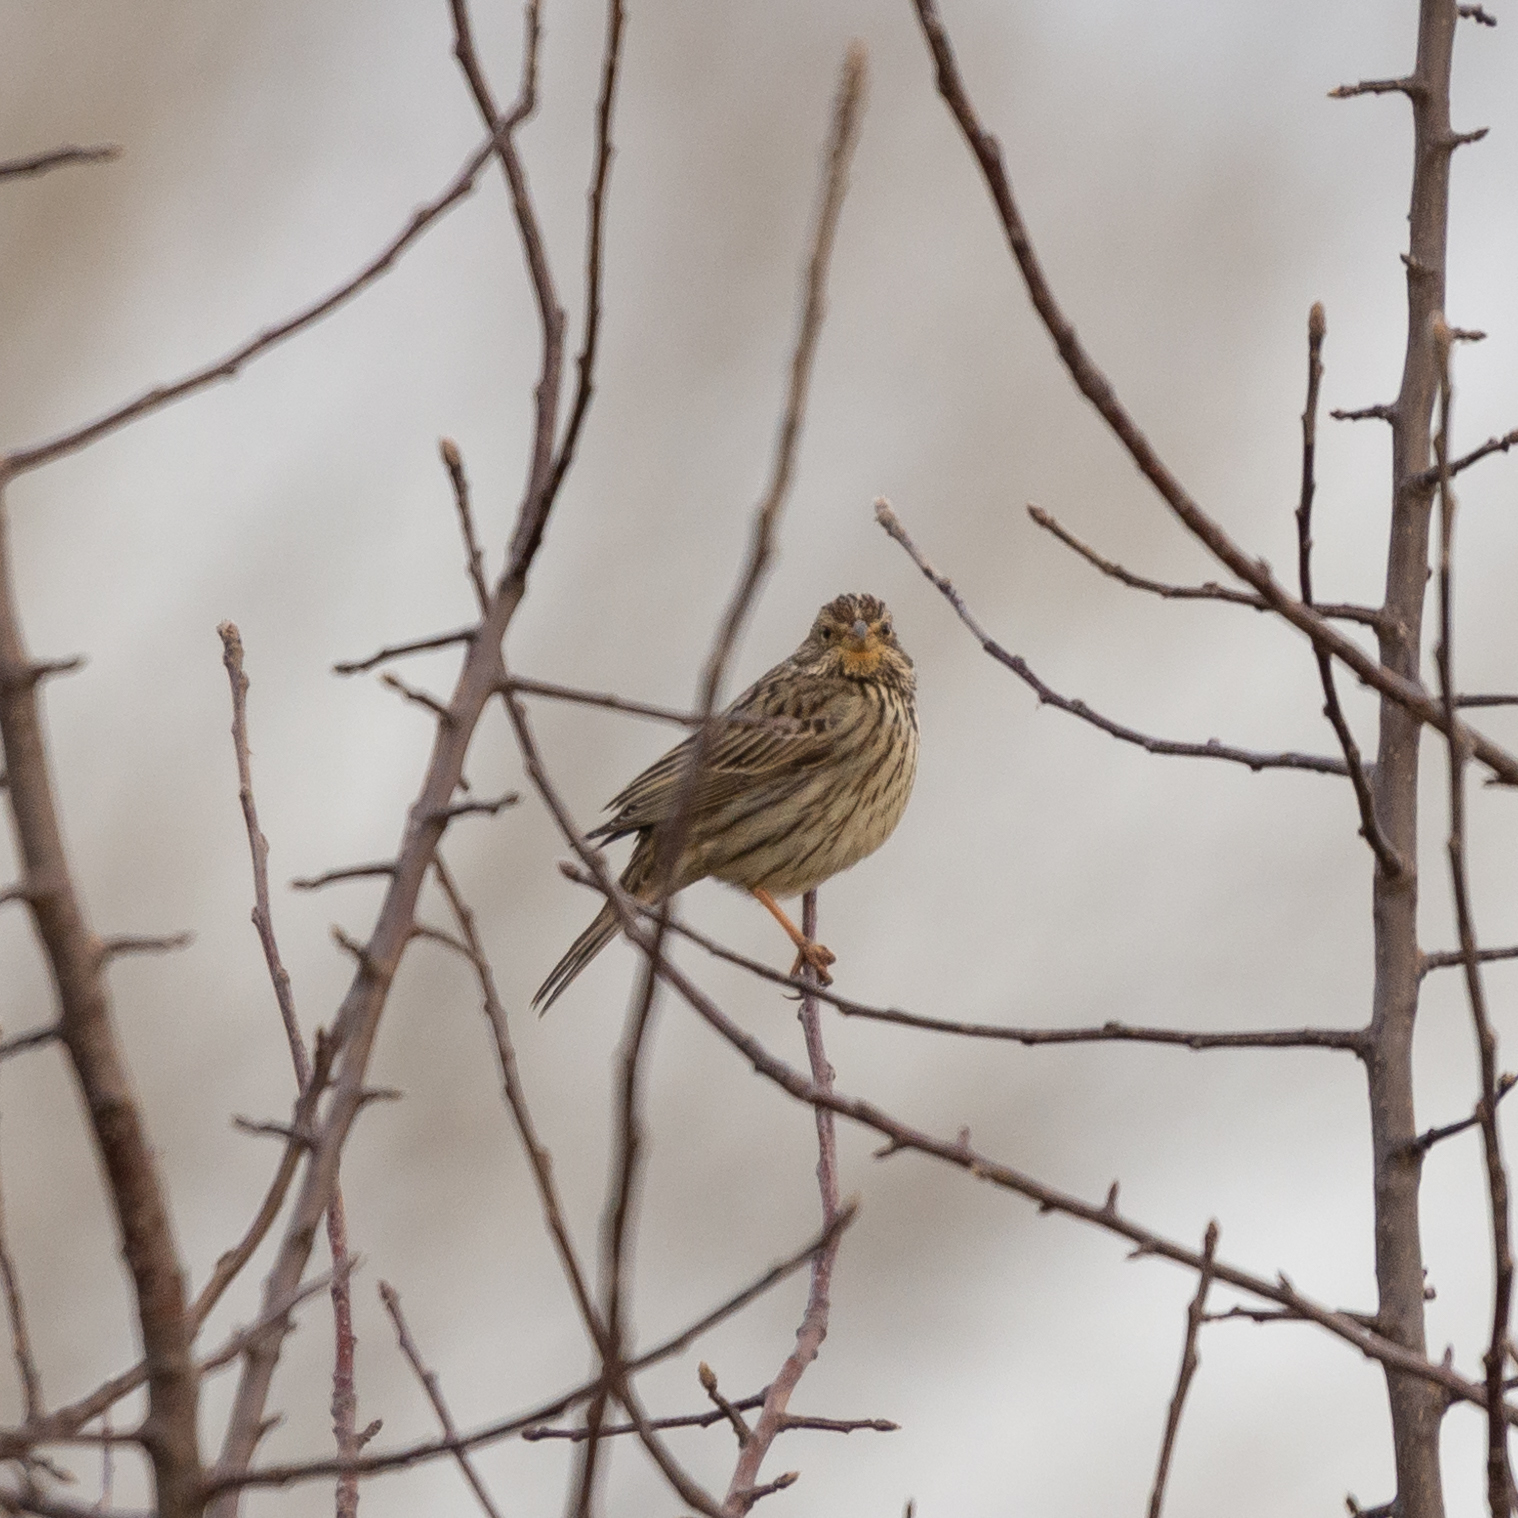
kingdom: Animalia
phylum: Chordata
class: Aves
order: Passeriformes
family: Emberizidae
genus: Emberiza
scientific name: Emberiza calandra
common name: Corn bunting
